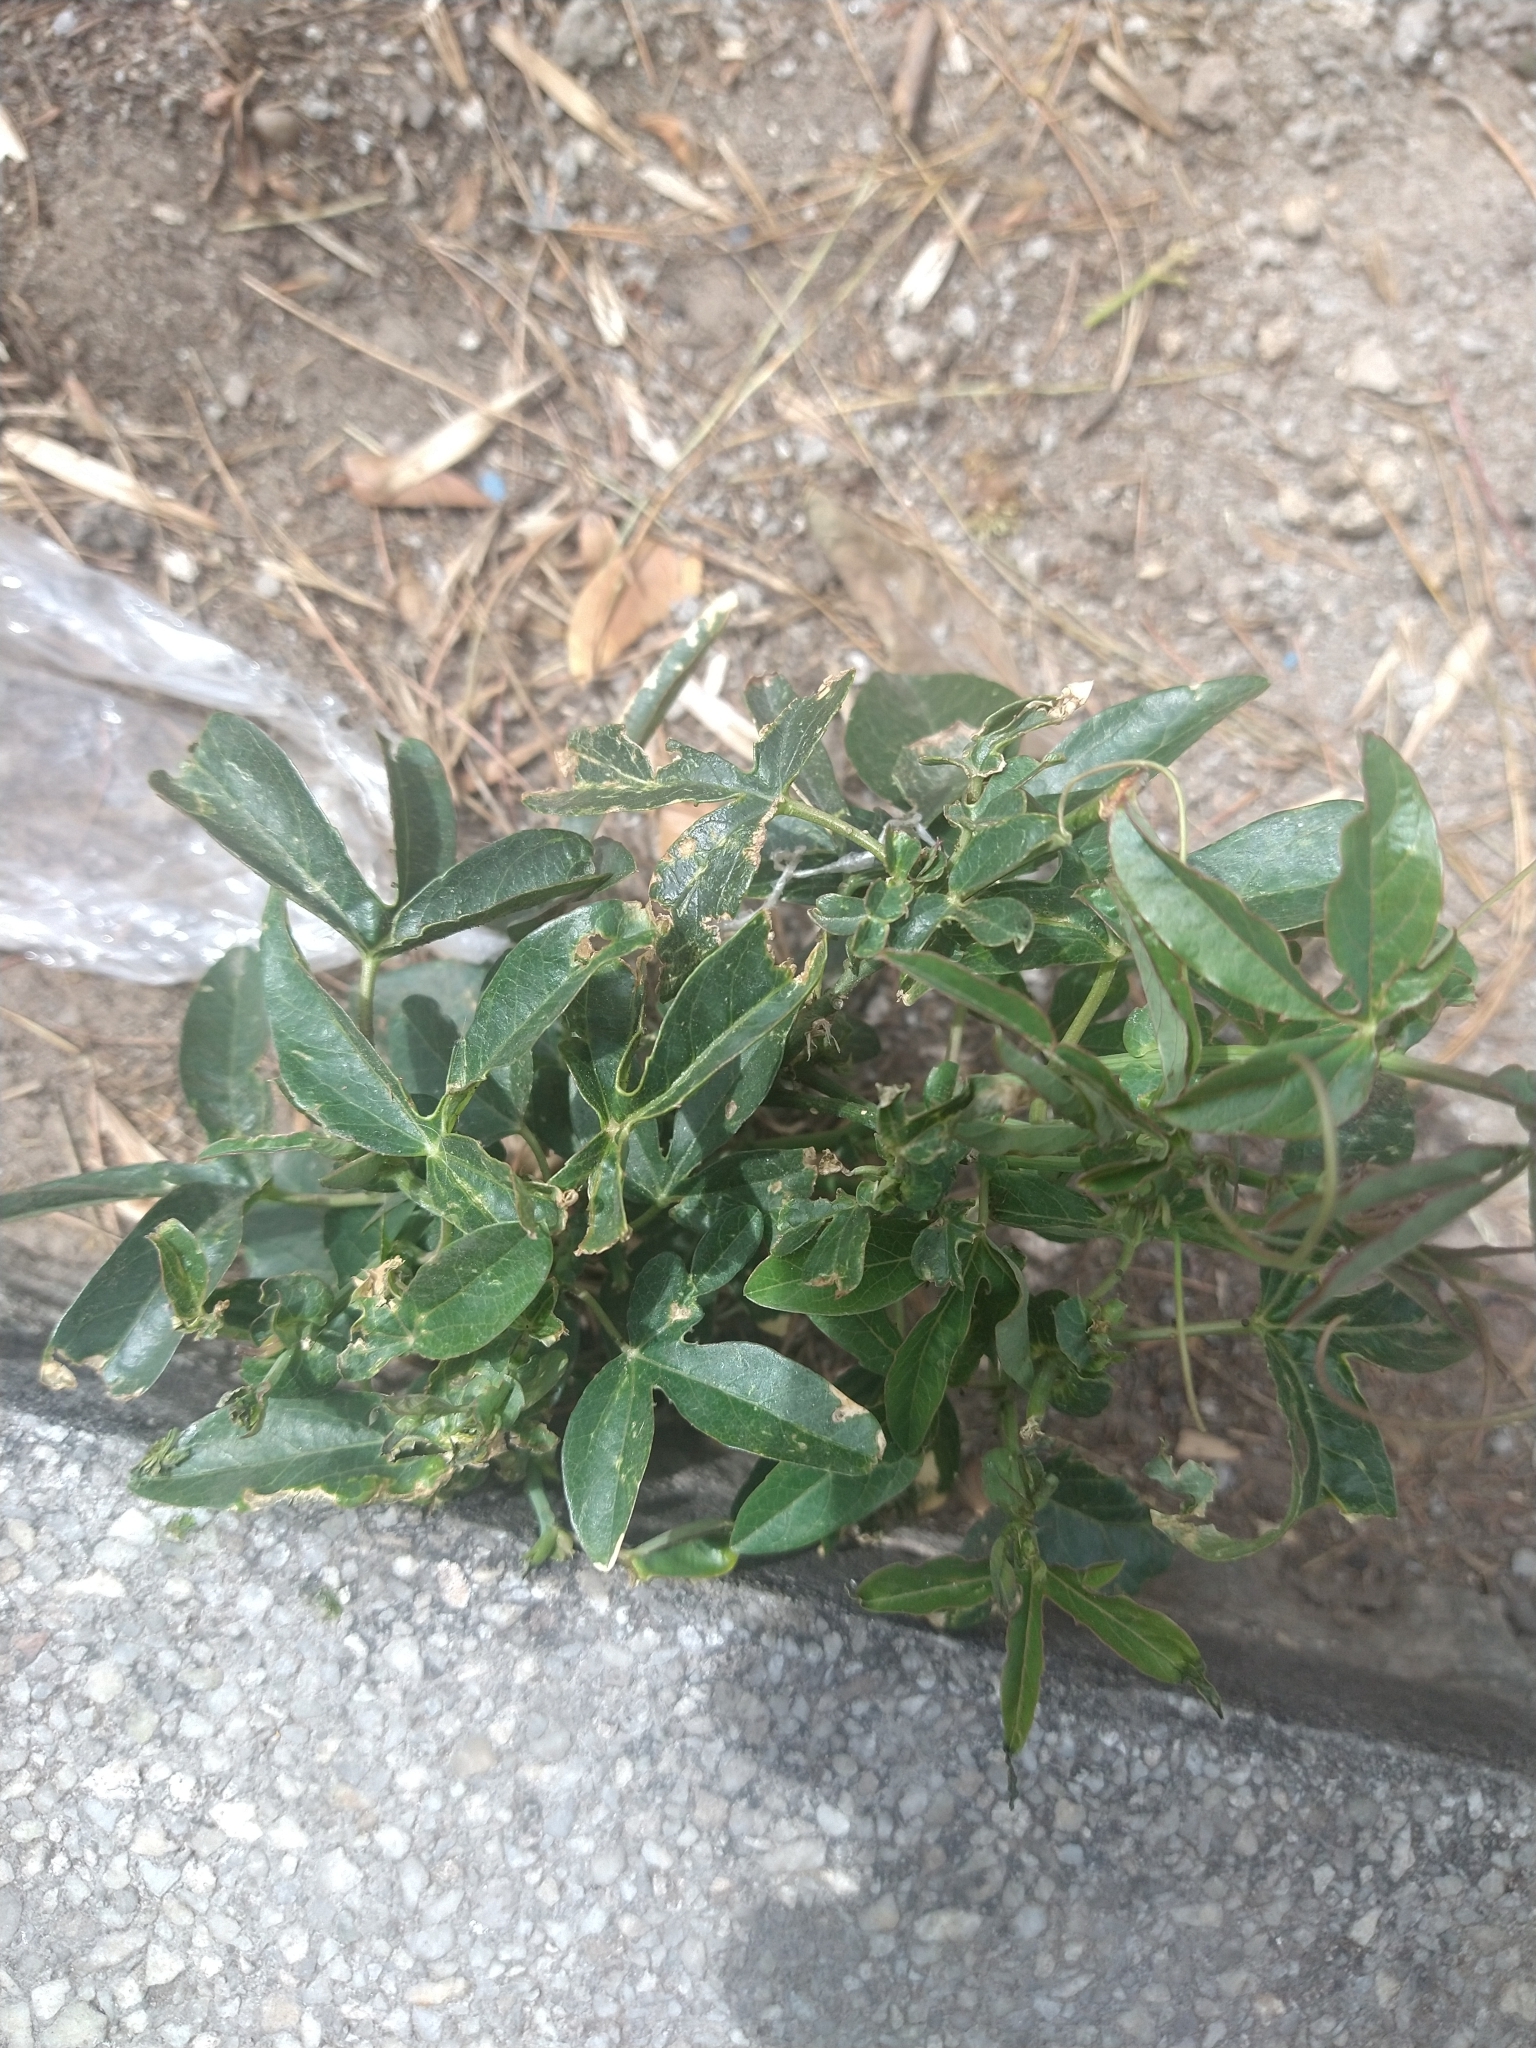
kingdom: Plantae
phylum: Tracheophyta
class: Magnoliopsida
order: Malpighiales
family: Passifloraceae
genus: Passiflora
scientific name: Passiflora caerulea
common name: Blue passionflower
